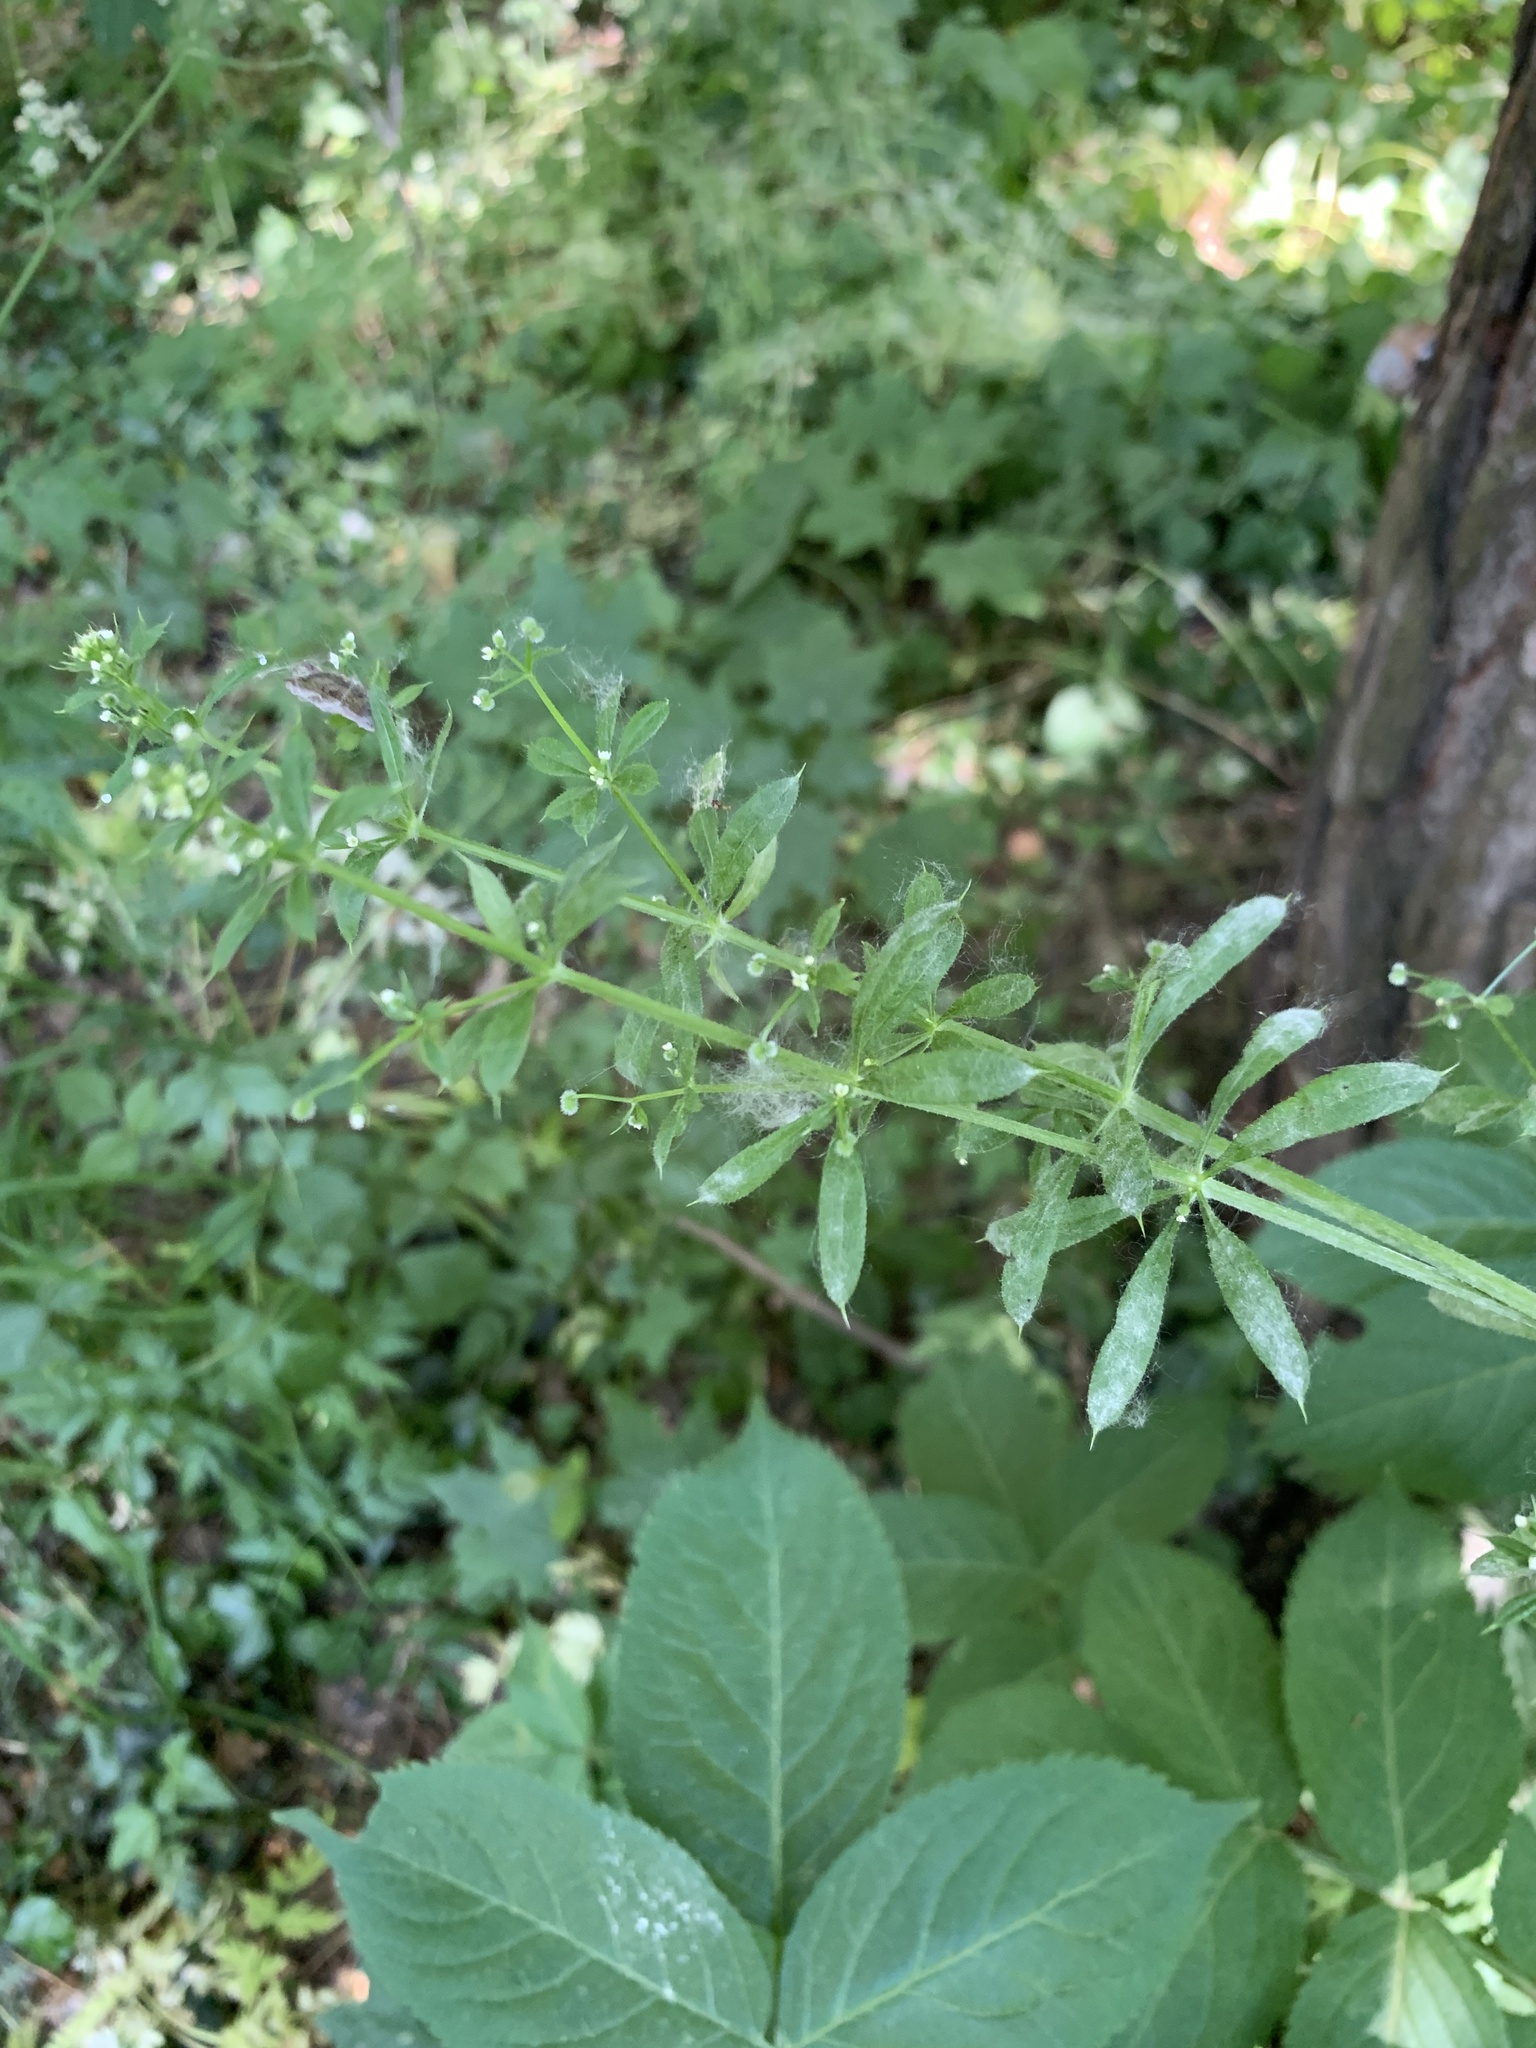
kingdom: Plantae
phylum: Tracheophyta
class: Magnoliopsida
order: Gentianales
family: Rubiaceae
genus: Galium
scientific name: Galium aparine
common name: Cleavers
